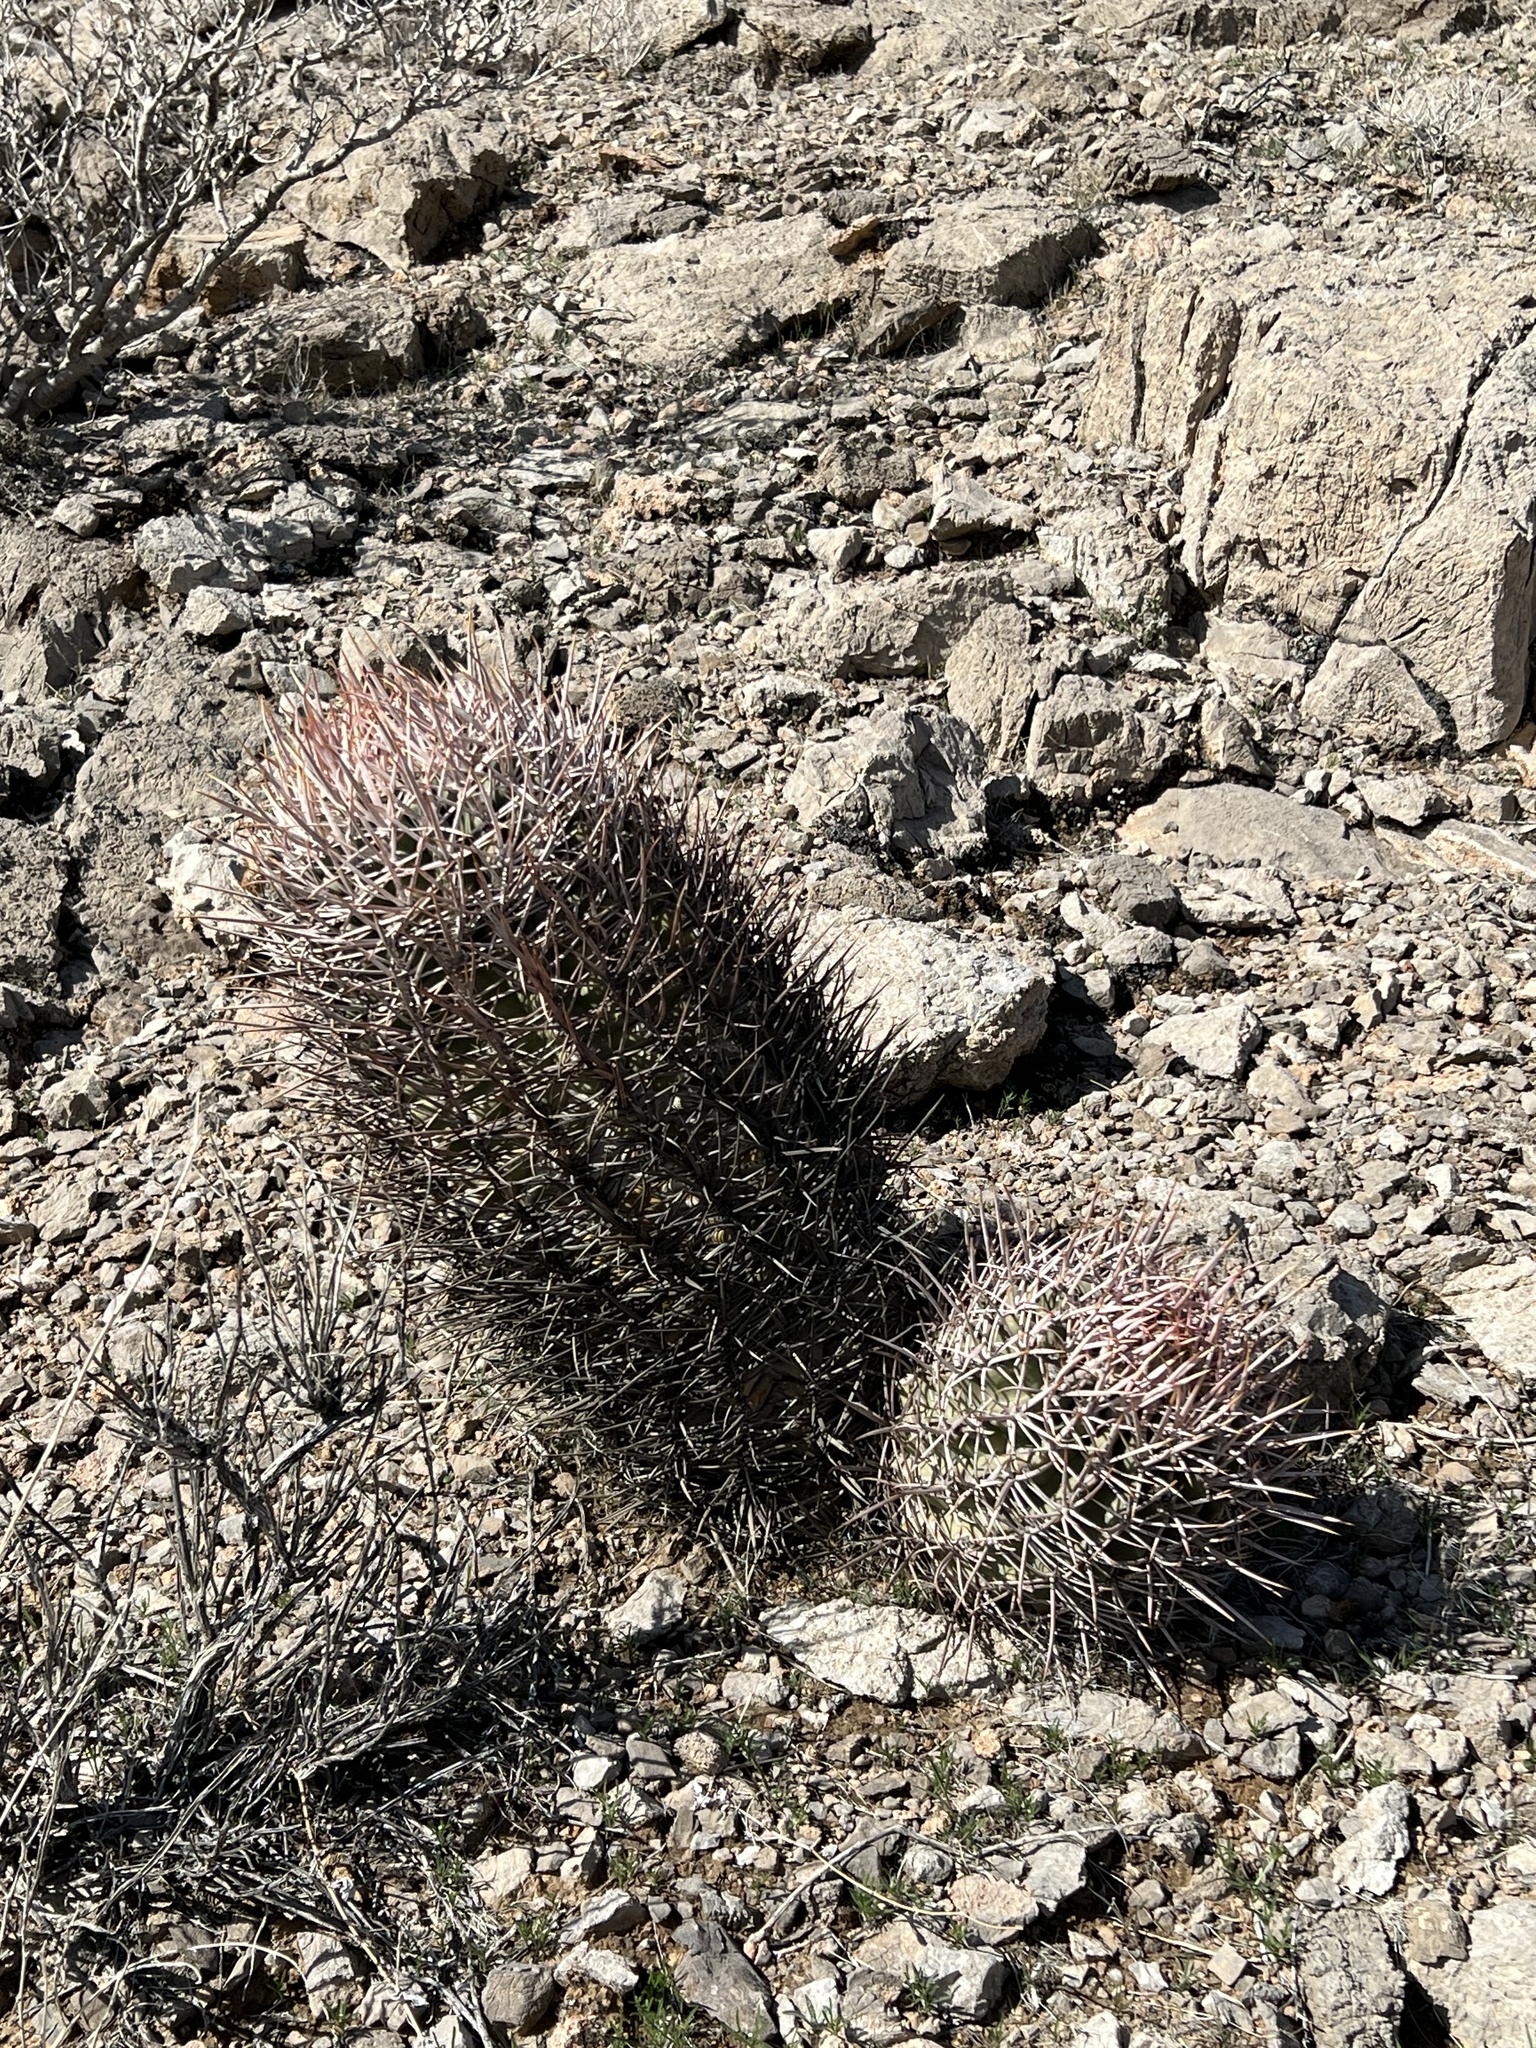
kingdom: Plantae
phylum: Tracheophyta
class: Magnoliopsida
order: Caryophyllales
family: Cactaceae
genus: Echinocactus
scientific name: Echinocactus polycephalus
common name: Cottontop cactus
